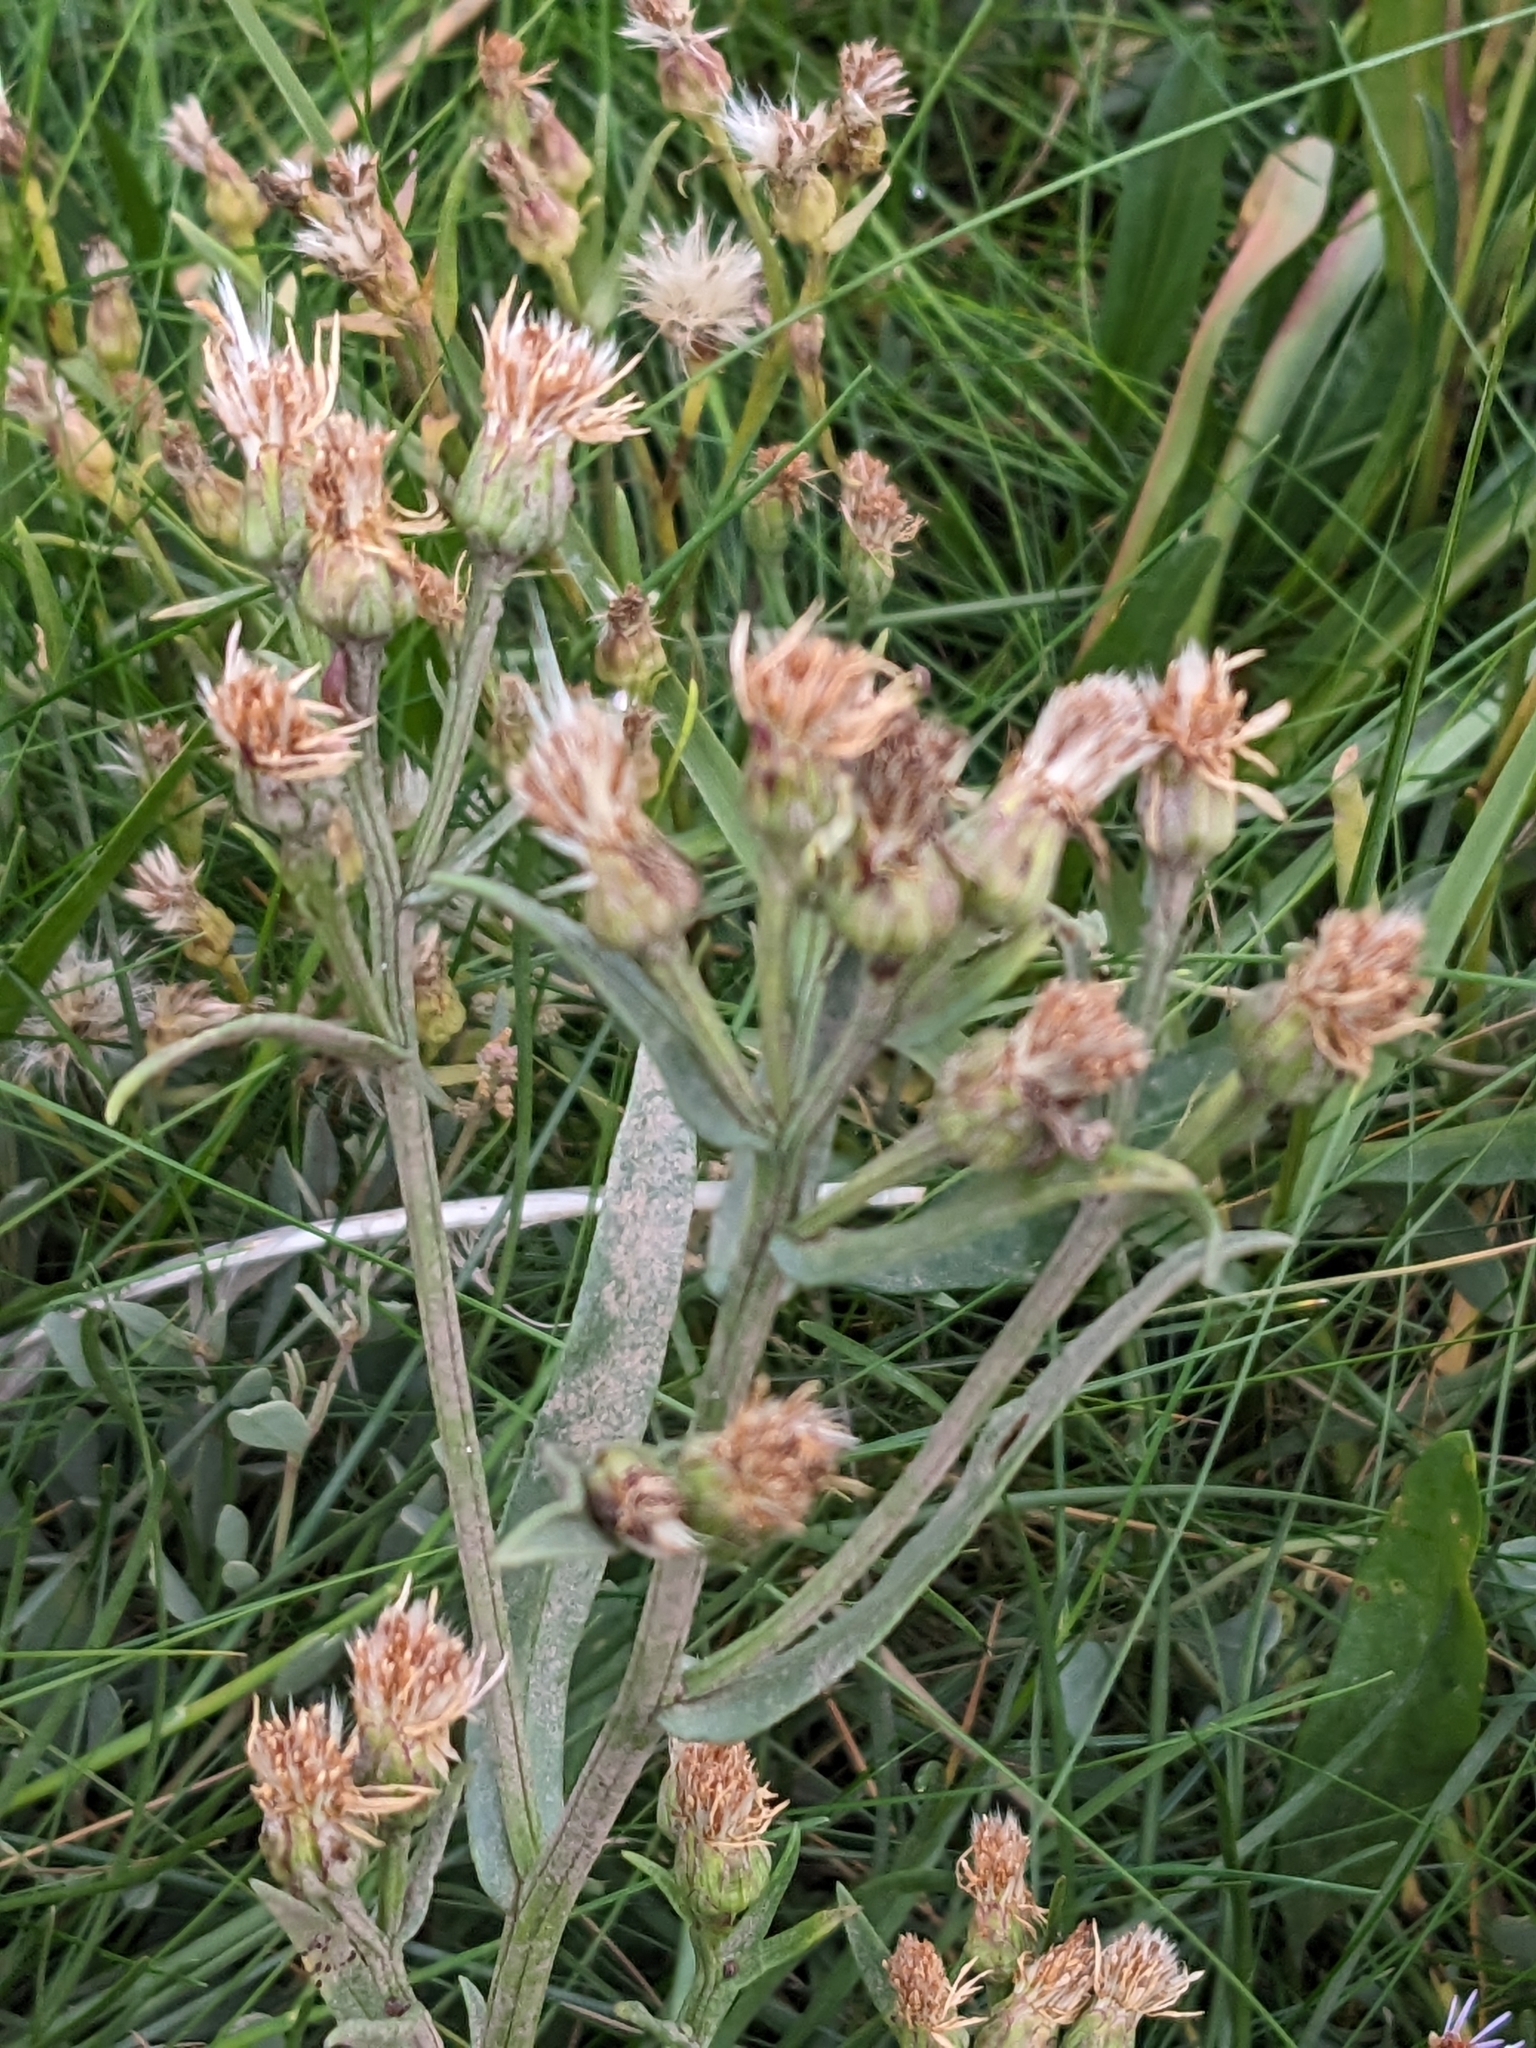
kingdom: Plantae
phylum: Tracheophyta
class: Magnoliopsida
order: Asterales
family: Asteraceae
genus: Tripolium
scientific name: Tripolium pannonicum
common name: Sea aster
